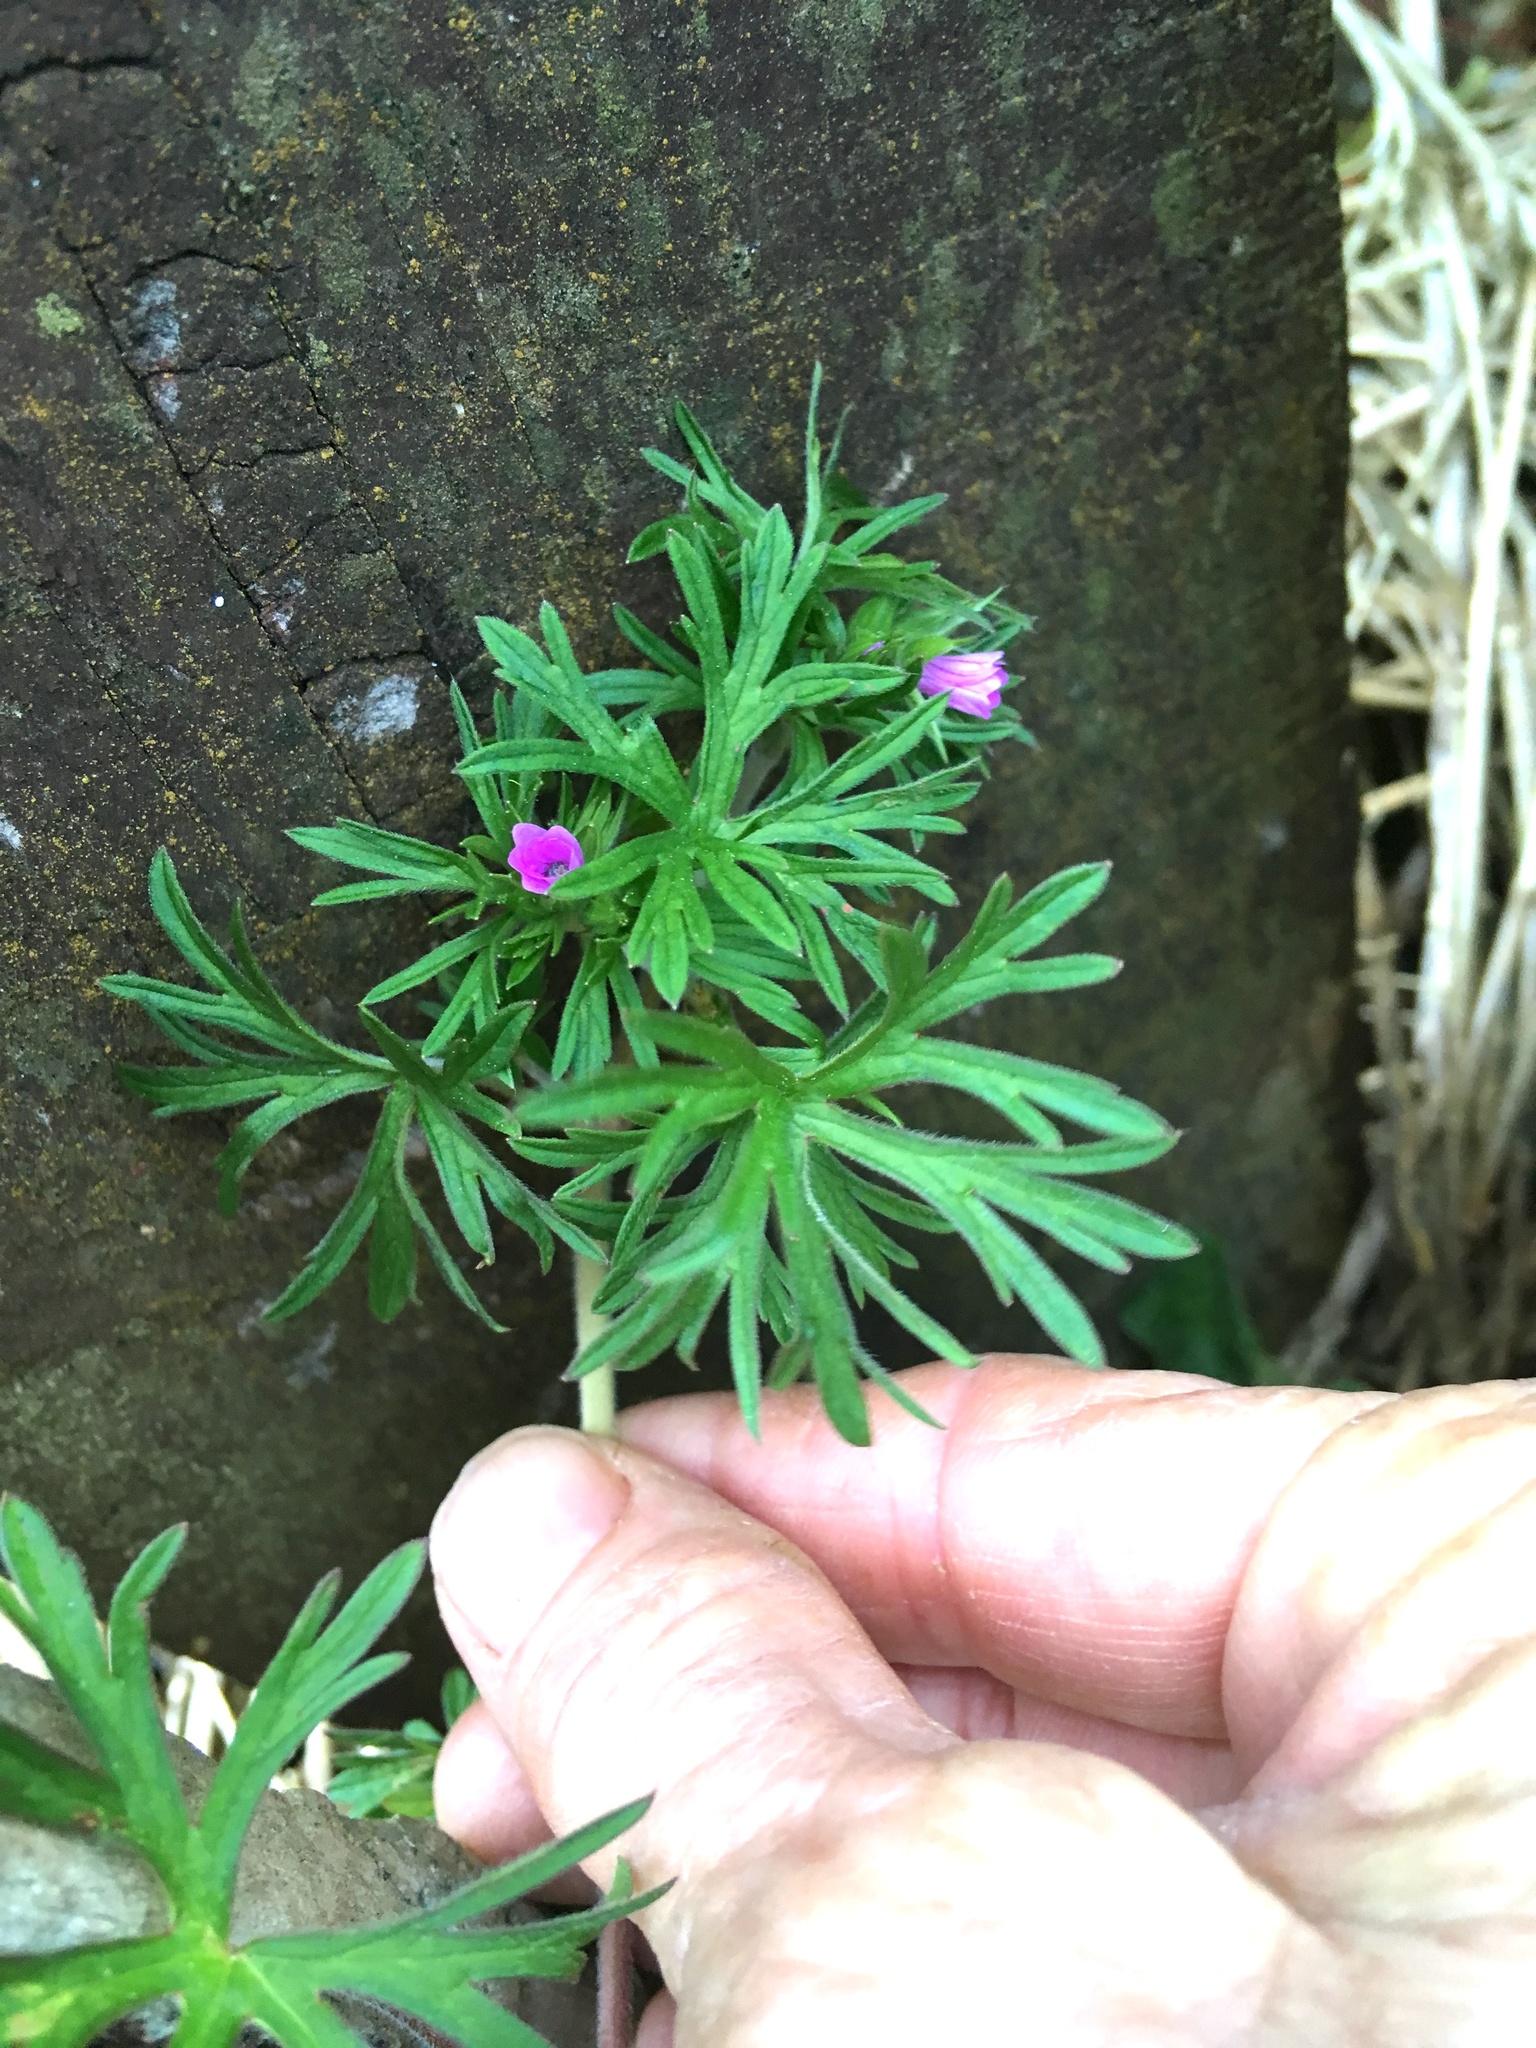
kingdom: Plantae
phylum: Tracheophyta
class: Magnoliopsida
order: Geraniales
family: Geraniaceae
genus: Geranium
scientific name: Geranium dissectum
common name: Cut-leaved crane's-bill
